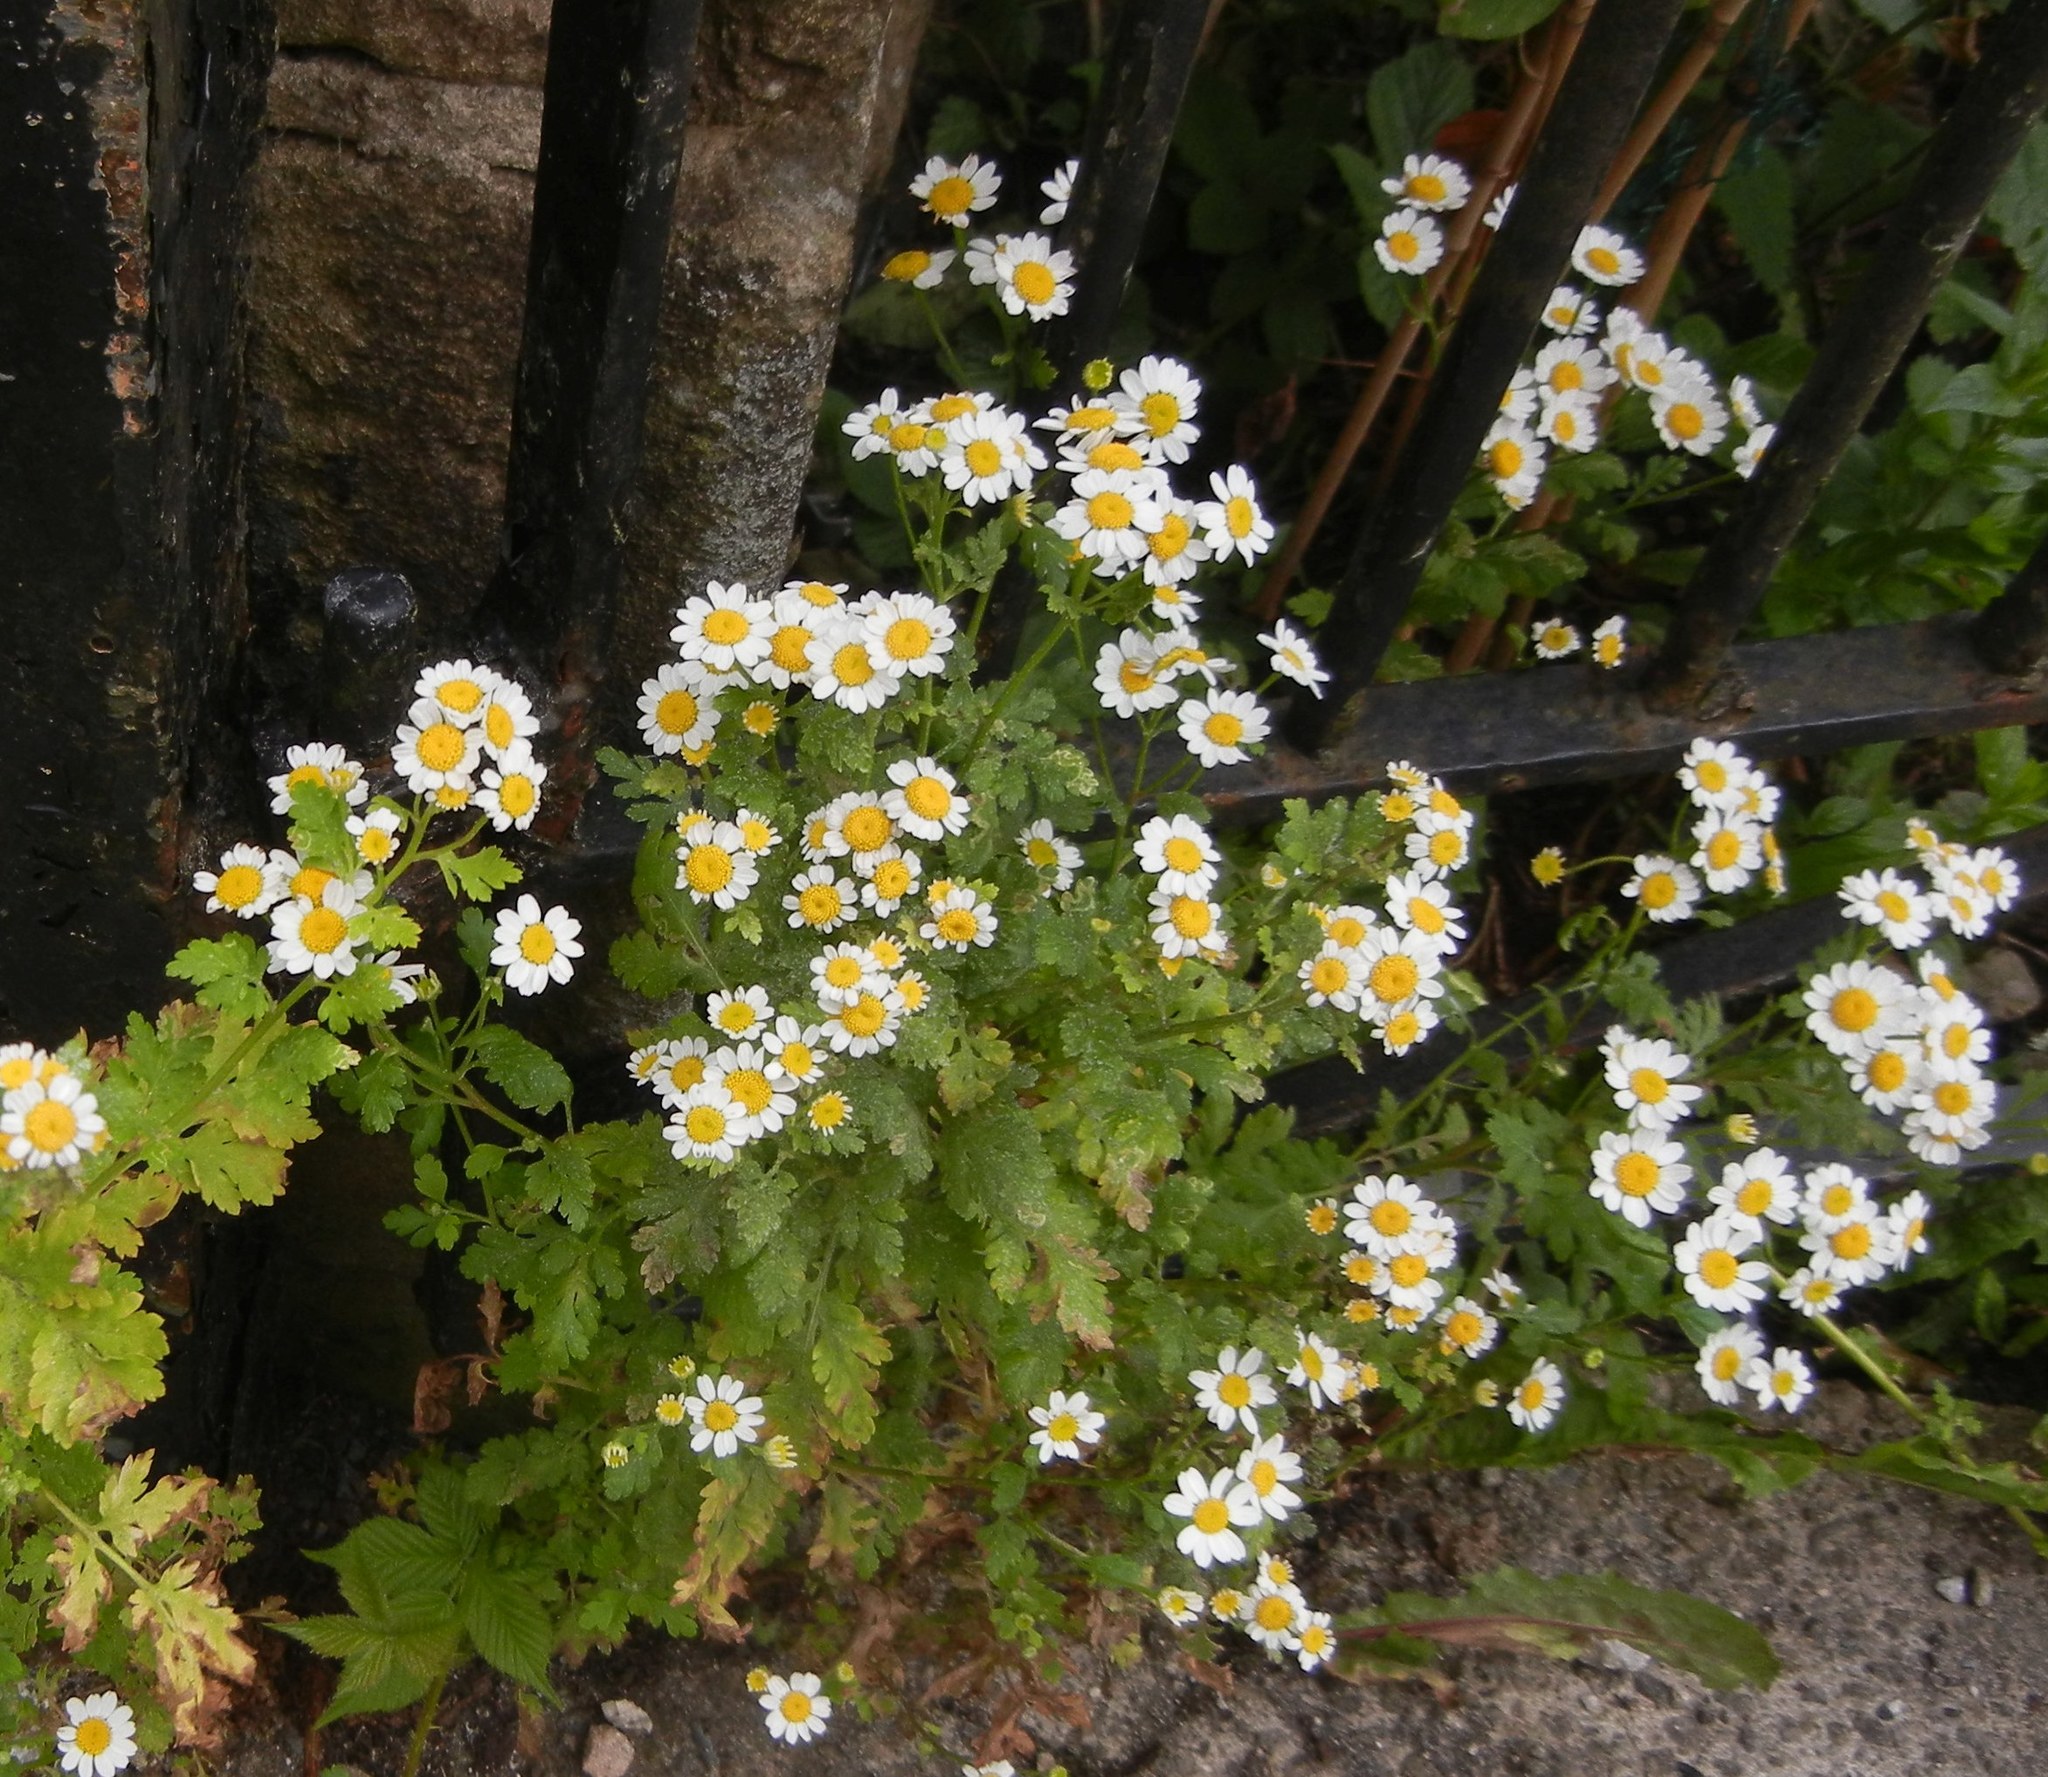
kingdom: Plantae
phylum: Tracheophyta
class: Magnoliopsida
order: Asterales
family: Asteraceae
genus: Tanacetum
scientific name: Tanacetum parthenium
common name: Feverfew
